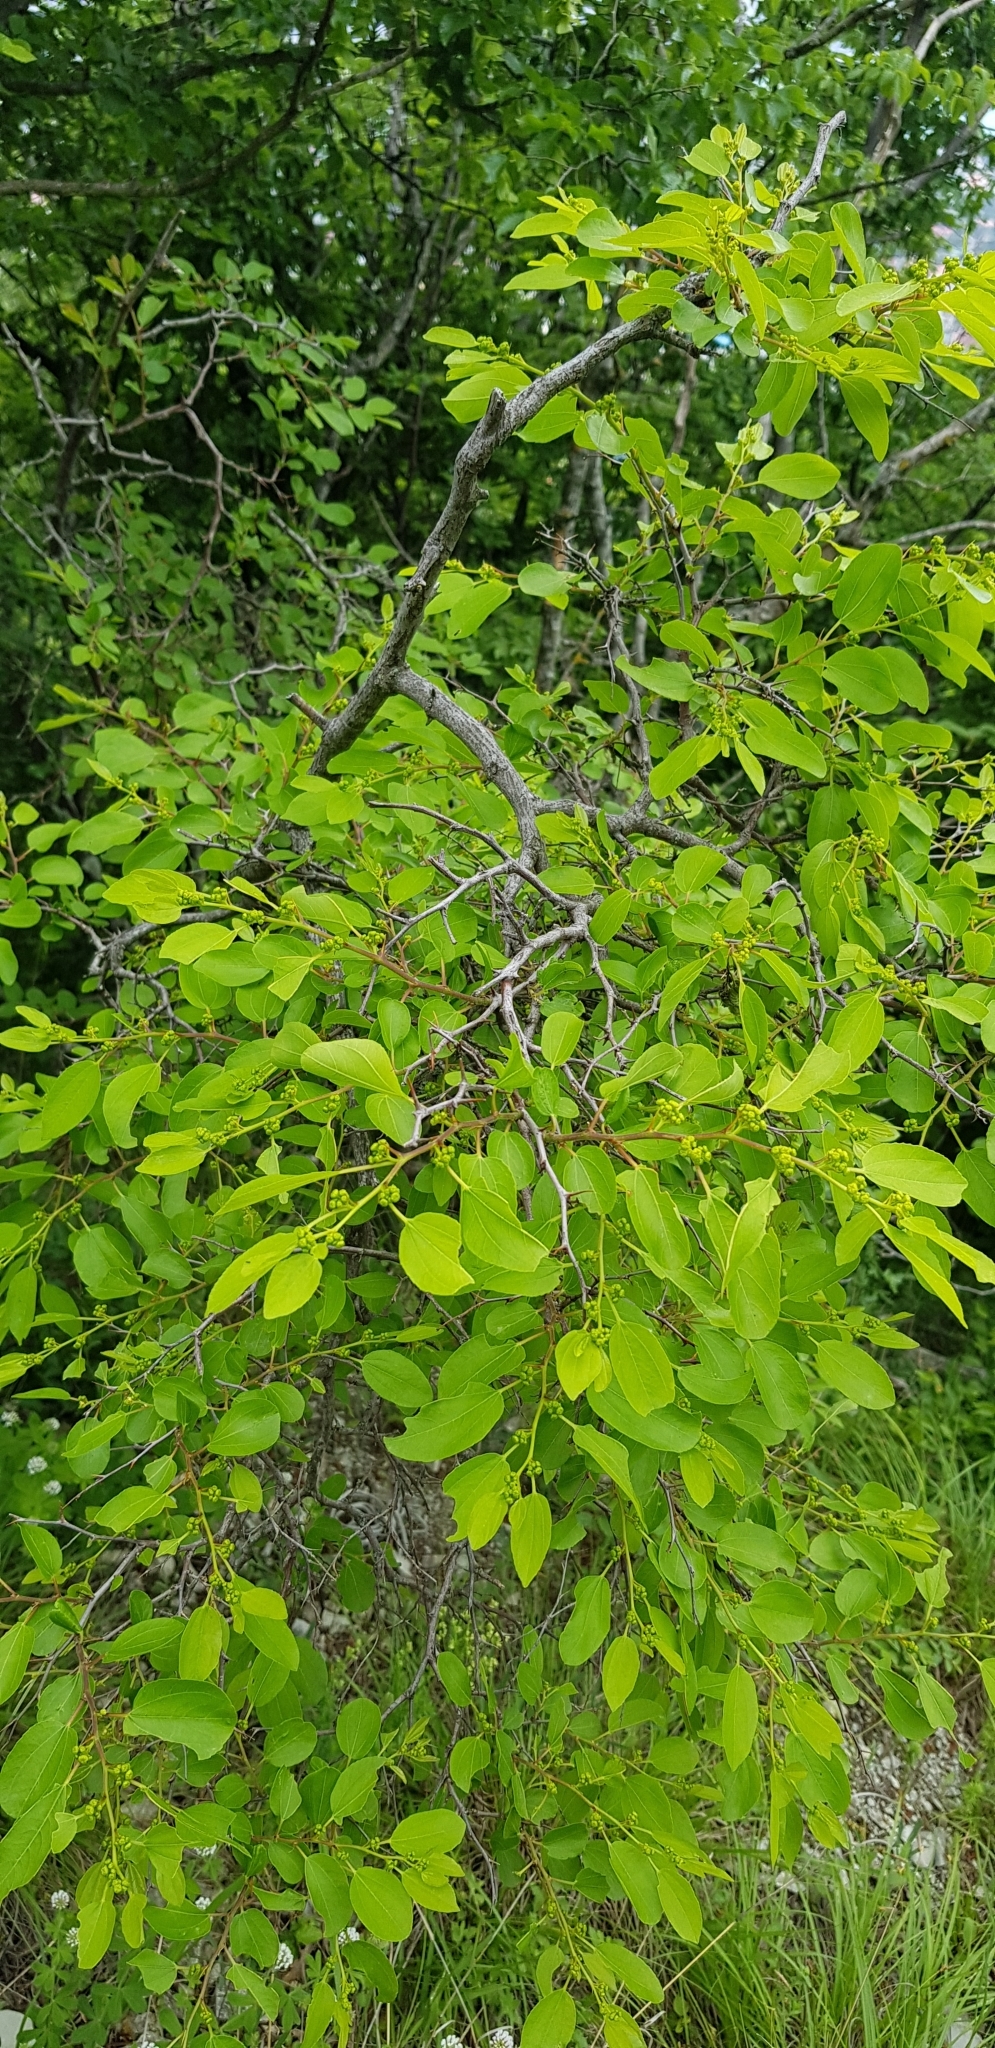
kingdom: Plantae
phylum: Tracheophyta
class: Magnoliopsida
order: Rosales
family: Rhamnaceae
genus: Paliurus
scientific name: Paliurus spina-christi
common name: Jeruselem thorn
